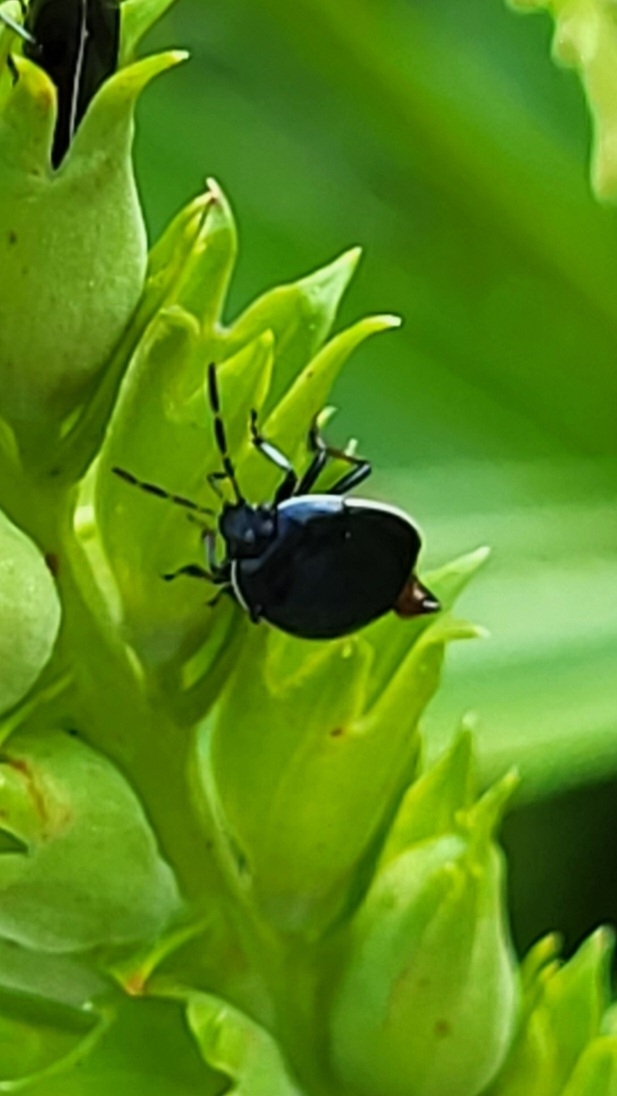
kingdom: Animalia
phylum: Arthropoda
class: Insecta
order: Hemiptera
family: Cydnidae
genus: Sehirus
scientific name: Sehirus cinctus
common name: White-margined burrower bug
